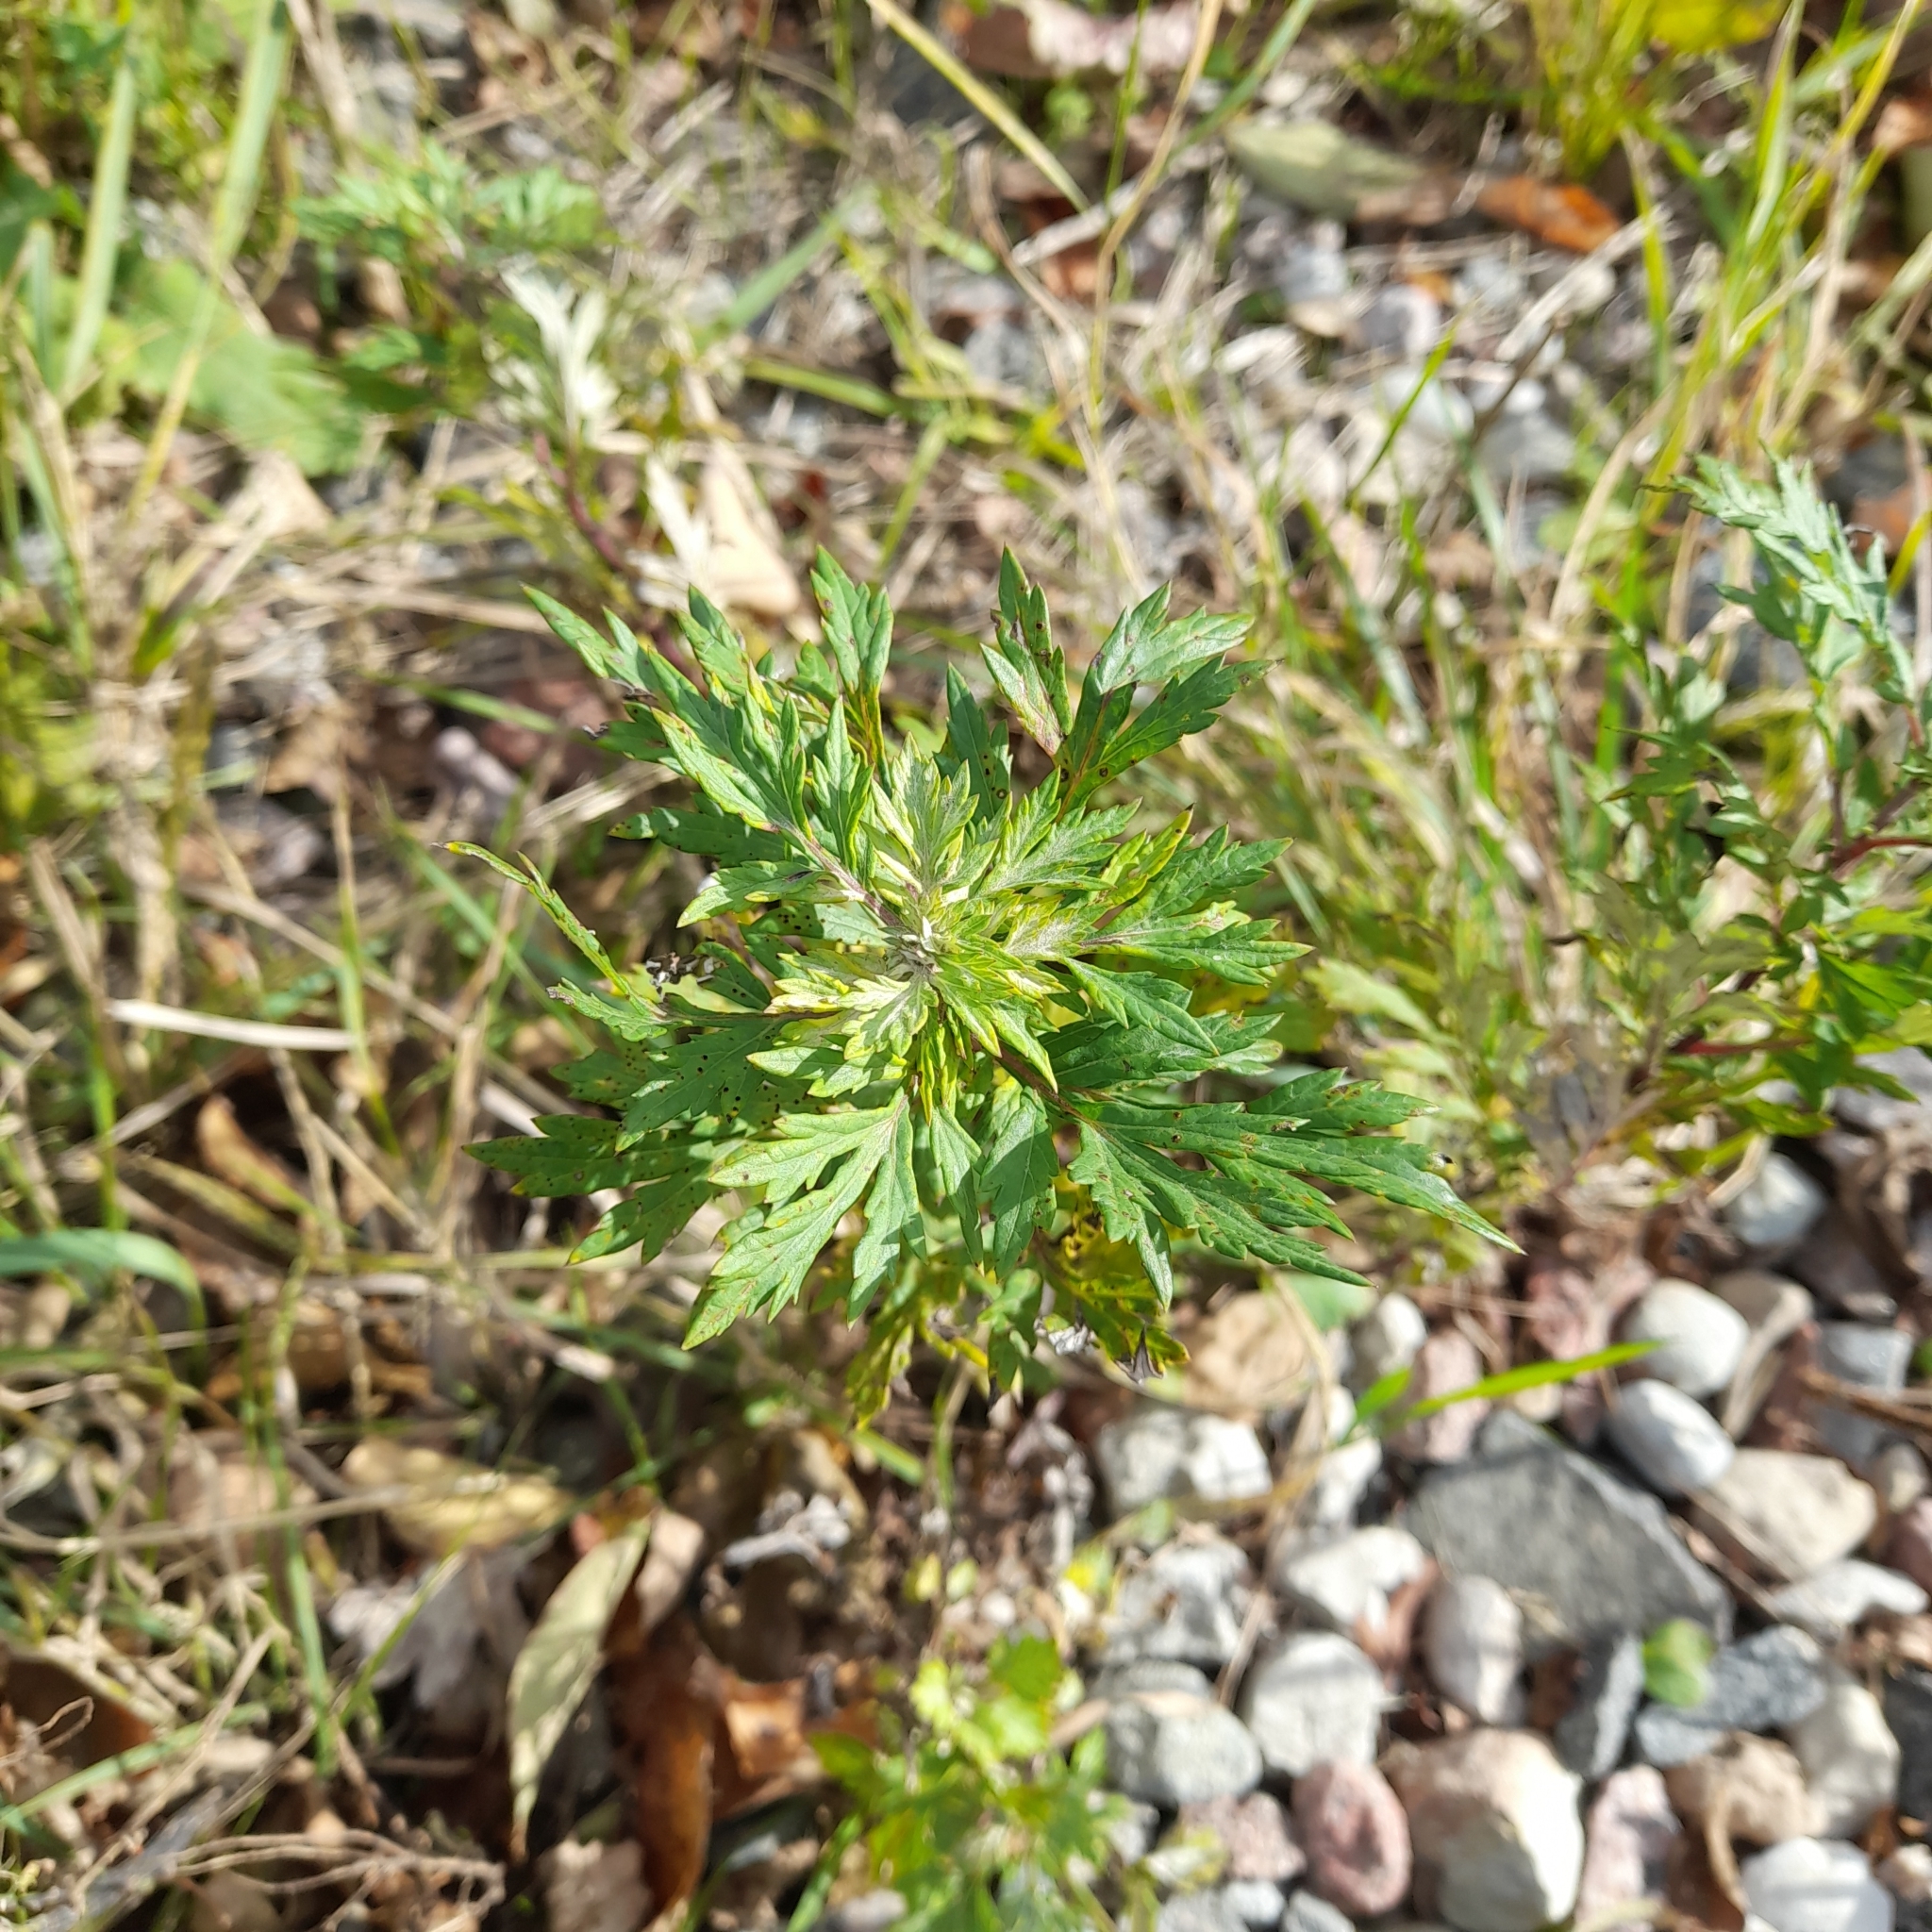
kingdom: Plantae
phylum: Tracheophyta
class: Magnoliopsida
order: Asterales
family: Asteraceae
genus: Artemisia
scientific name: Artemisia vulgaris
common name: Mugwort
